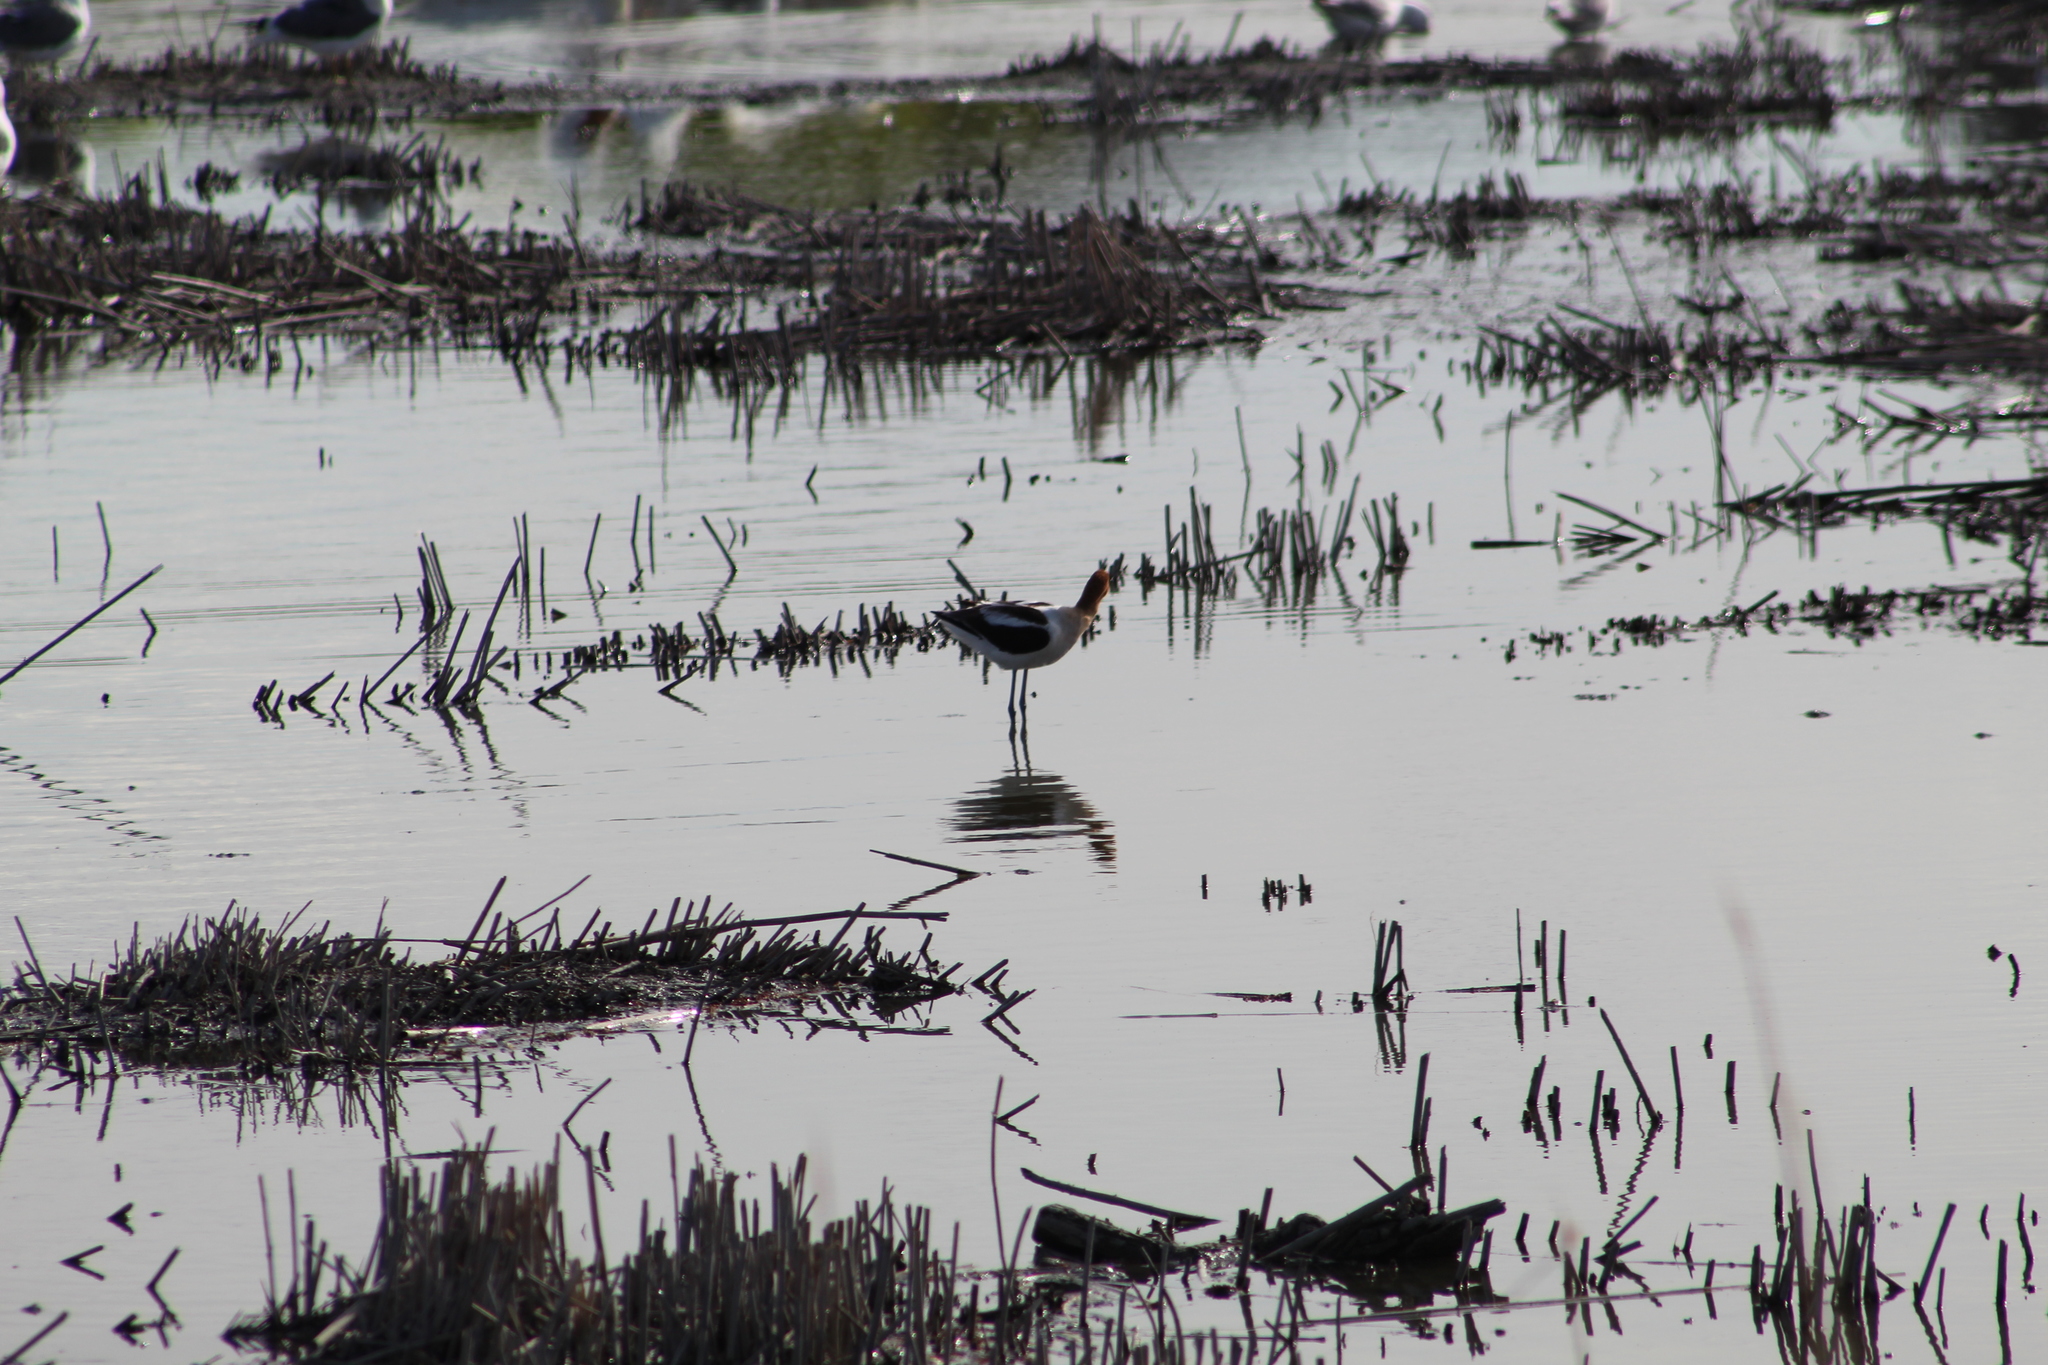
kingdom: Animalia
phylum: Chordata
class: Aves
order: Charadriiformes
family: Recurvirostridae
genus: Recurvirostra
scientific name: Recurvirostra americana
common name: American avocet
